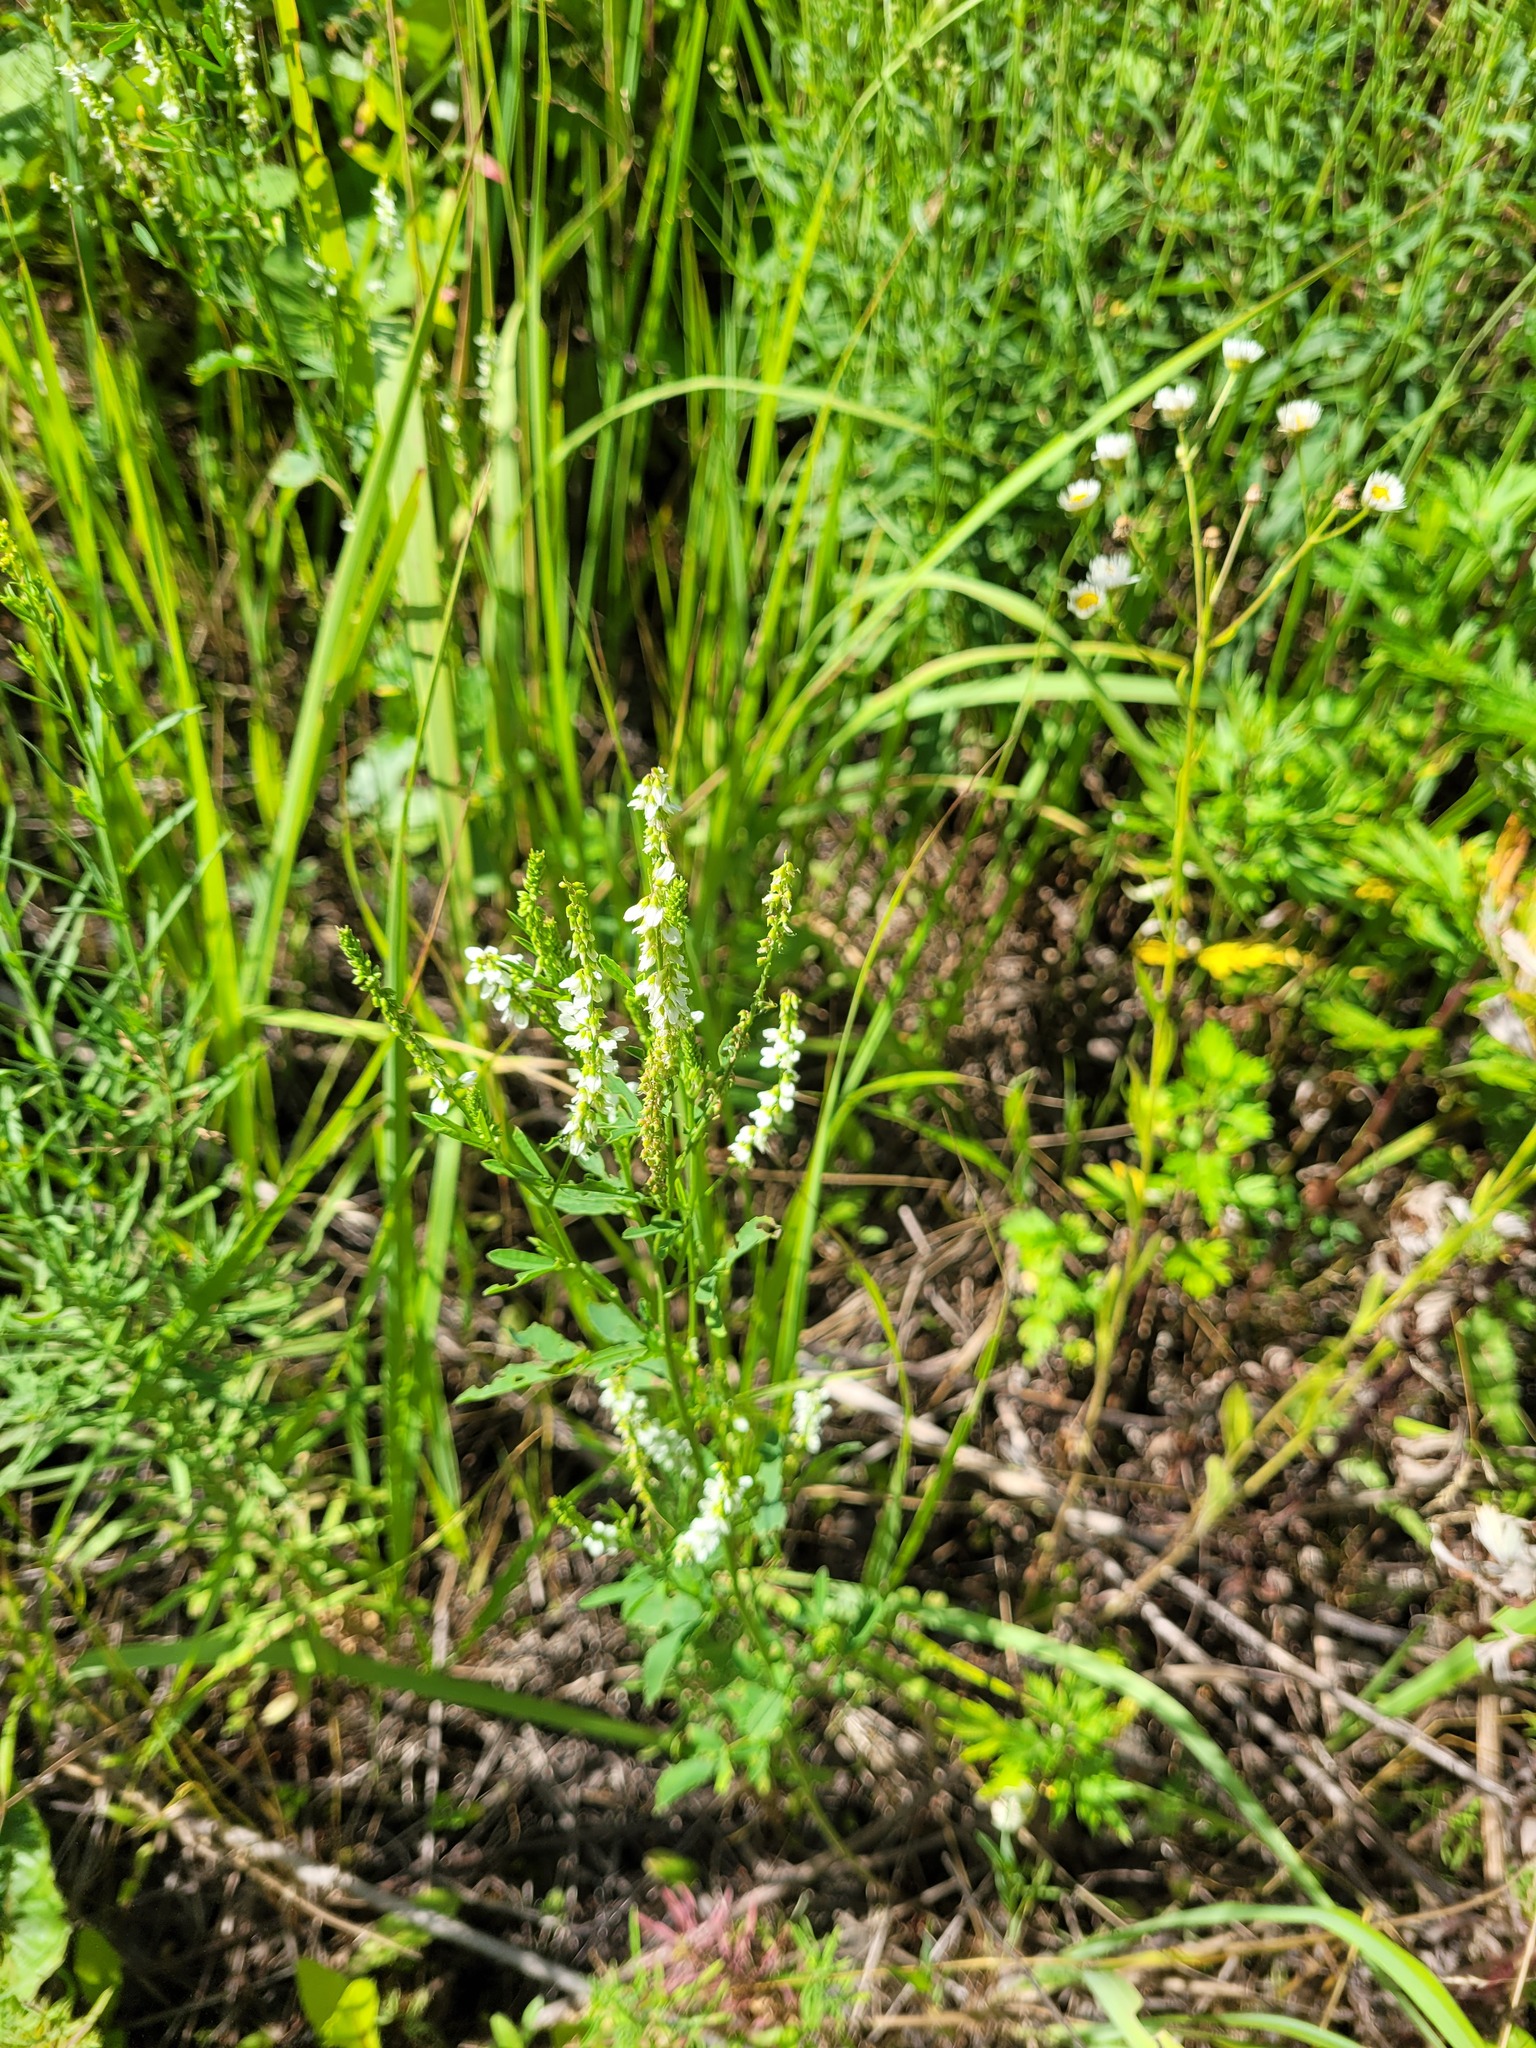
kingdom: Plantae
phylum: Tracheophyta
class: Magnoliopsida
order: Fabales
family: Fabaceae
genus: Melilotus
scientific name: Melilotus albus
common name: White melilot
